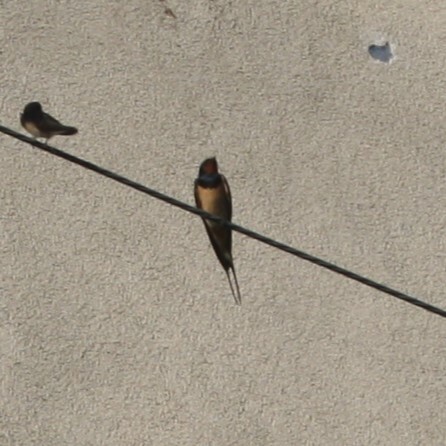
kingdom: Animalia
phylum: Chordata
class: Aves
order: Passeriformes
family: Hirundinidae
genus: Hirundo
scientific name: Hirundo rustica
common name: Barn swallow
